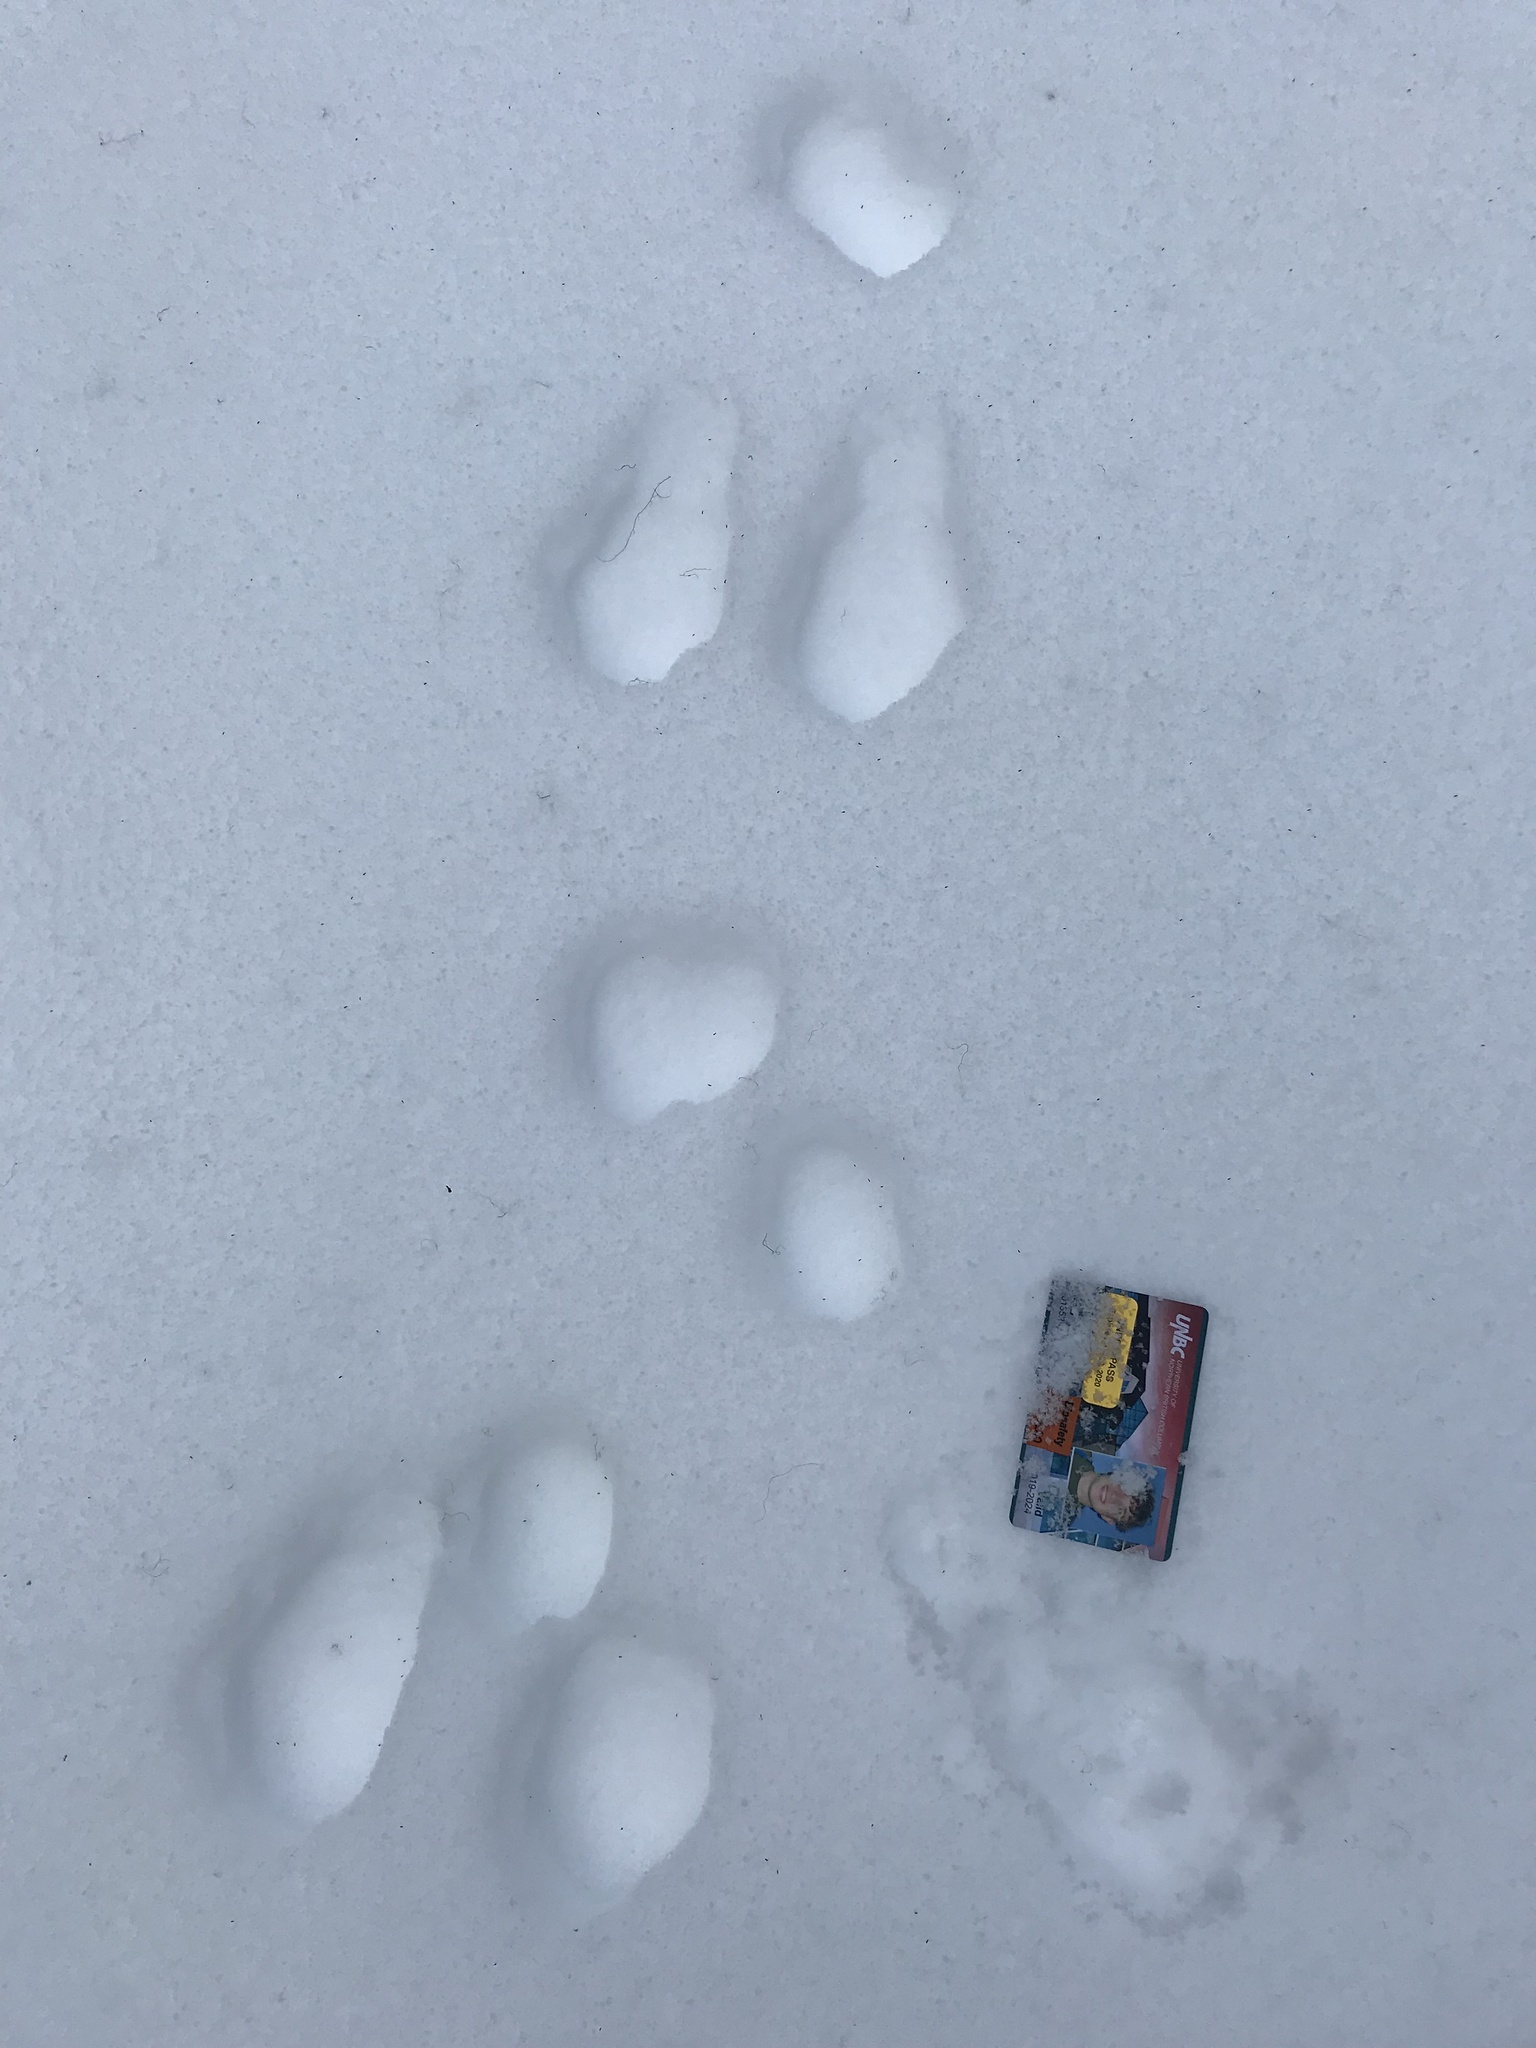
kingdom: Animalia
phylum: Chordata
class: Mammalia
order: Lagomorpha
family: Leporidae
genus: Lepus
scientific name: Lepus americanus
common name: Snowshoe hare
